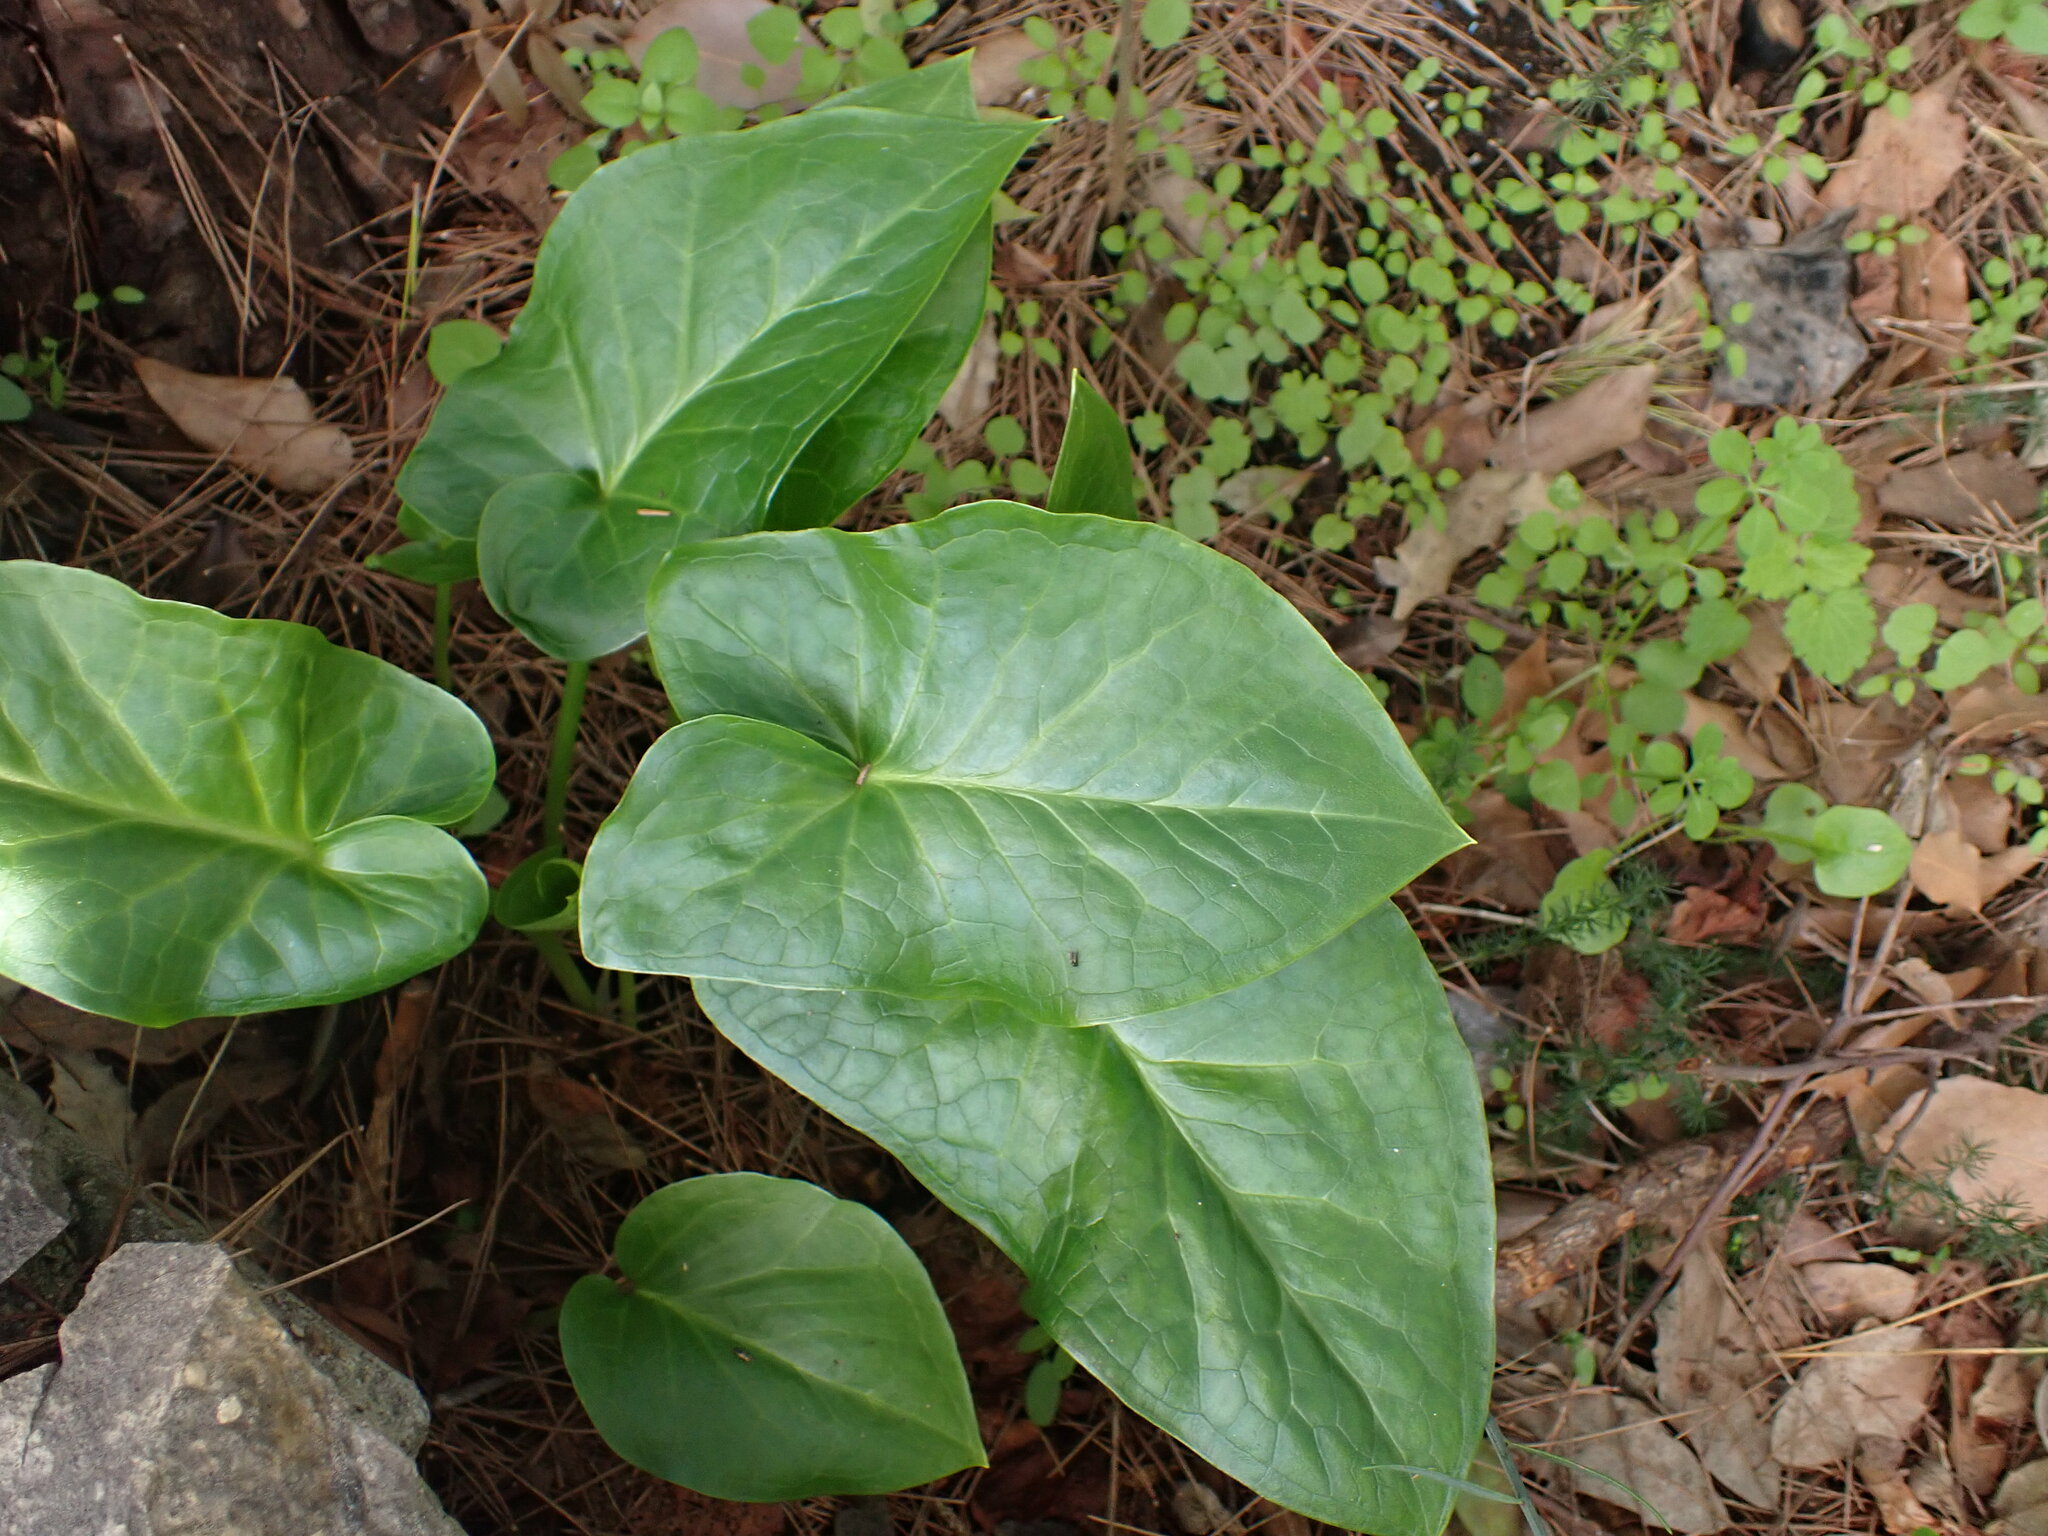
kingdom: Plantae
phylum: Tracheophyta
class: Liliopsida
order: Alismatales
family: Araceae
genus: Arum
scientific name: Arum italicum
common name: Italian lords-and-ladies
